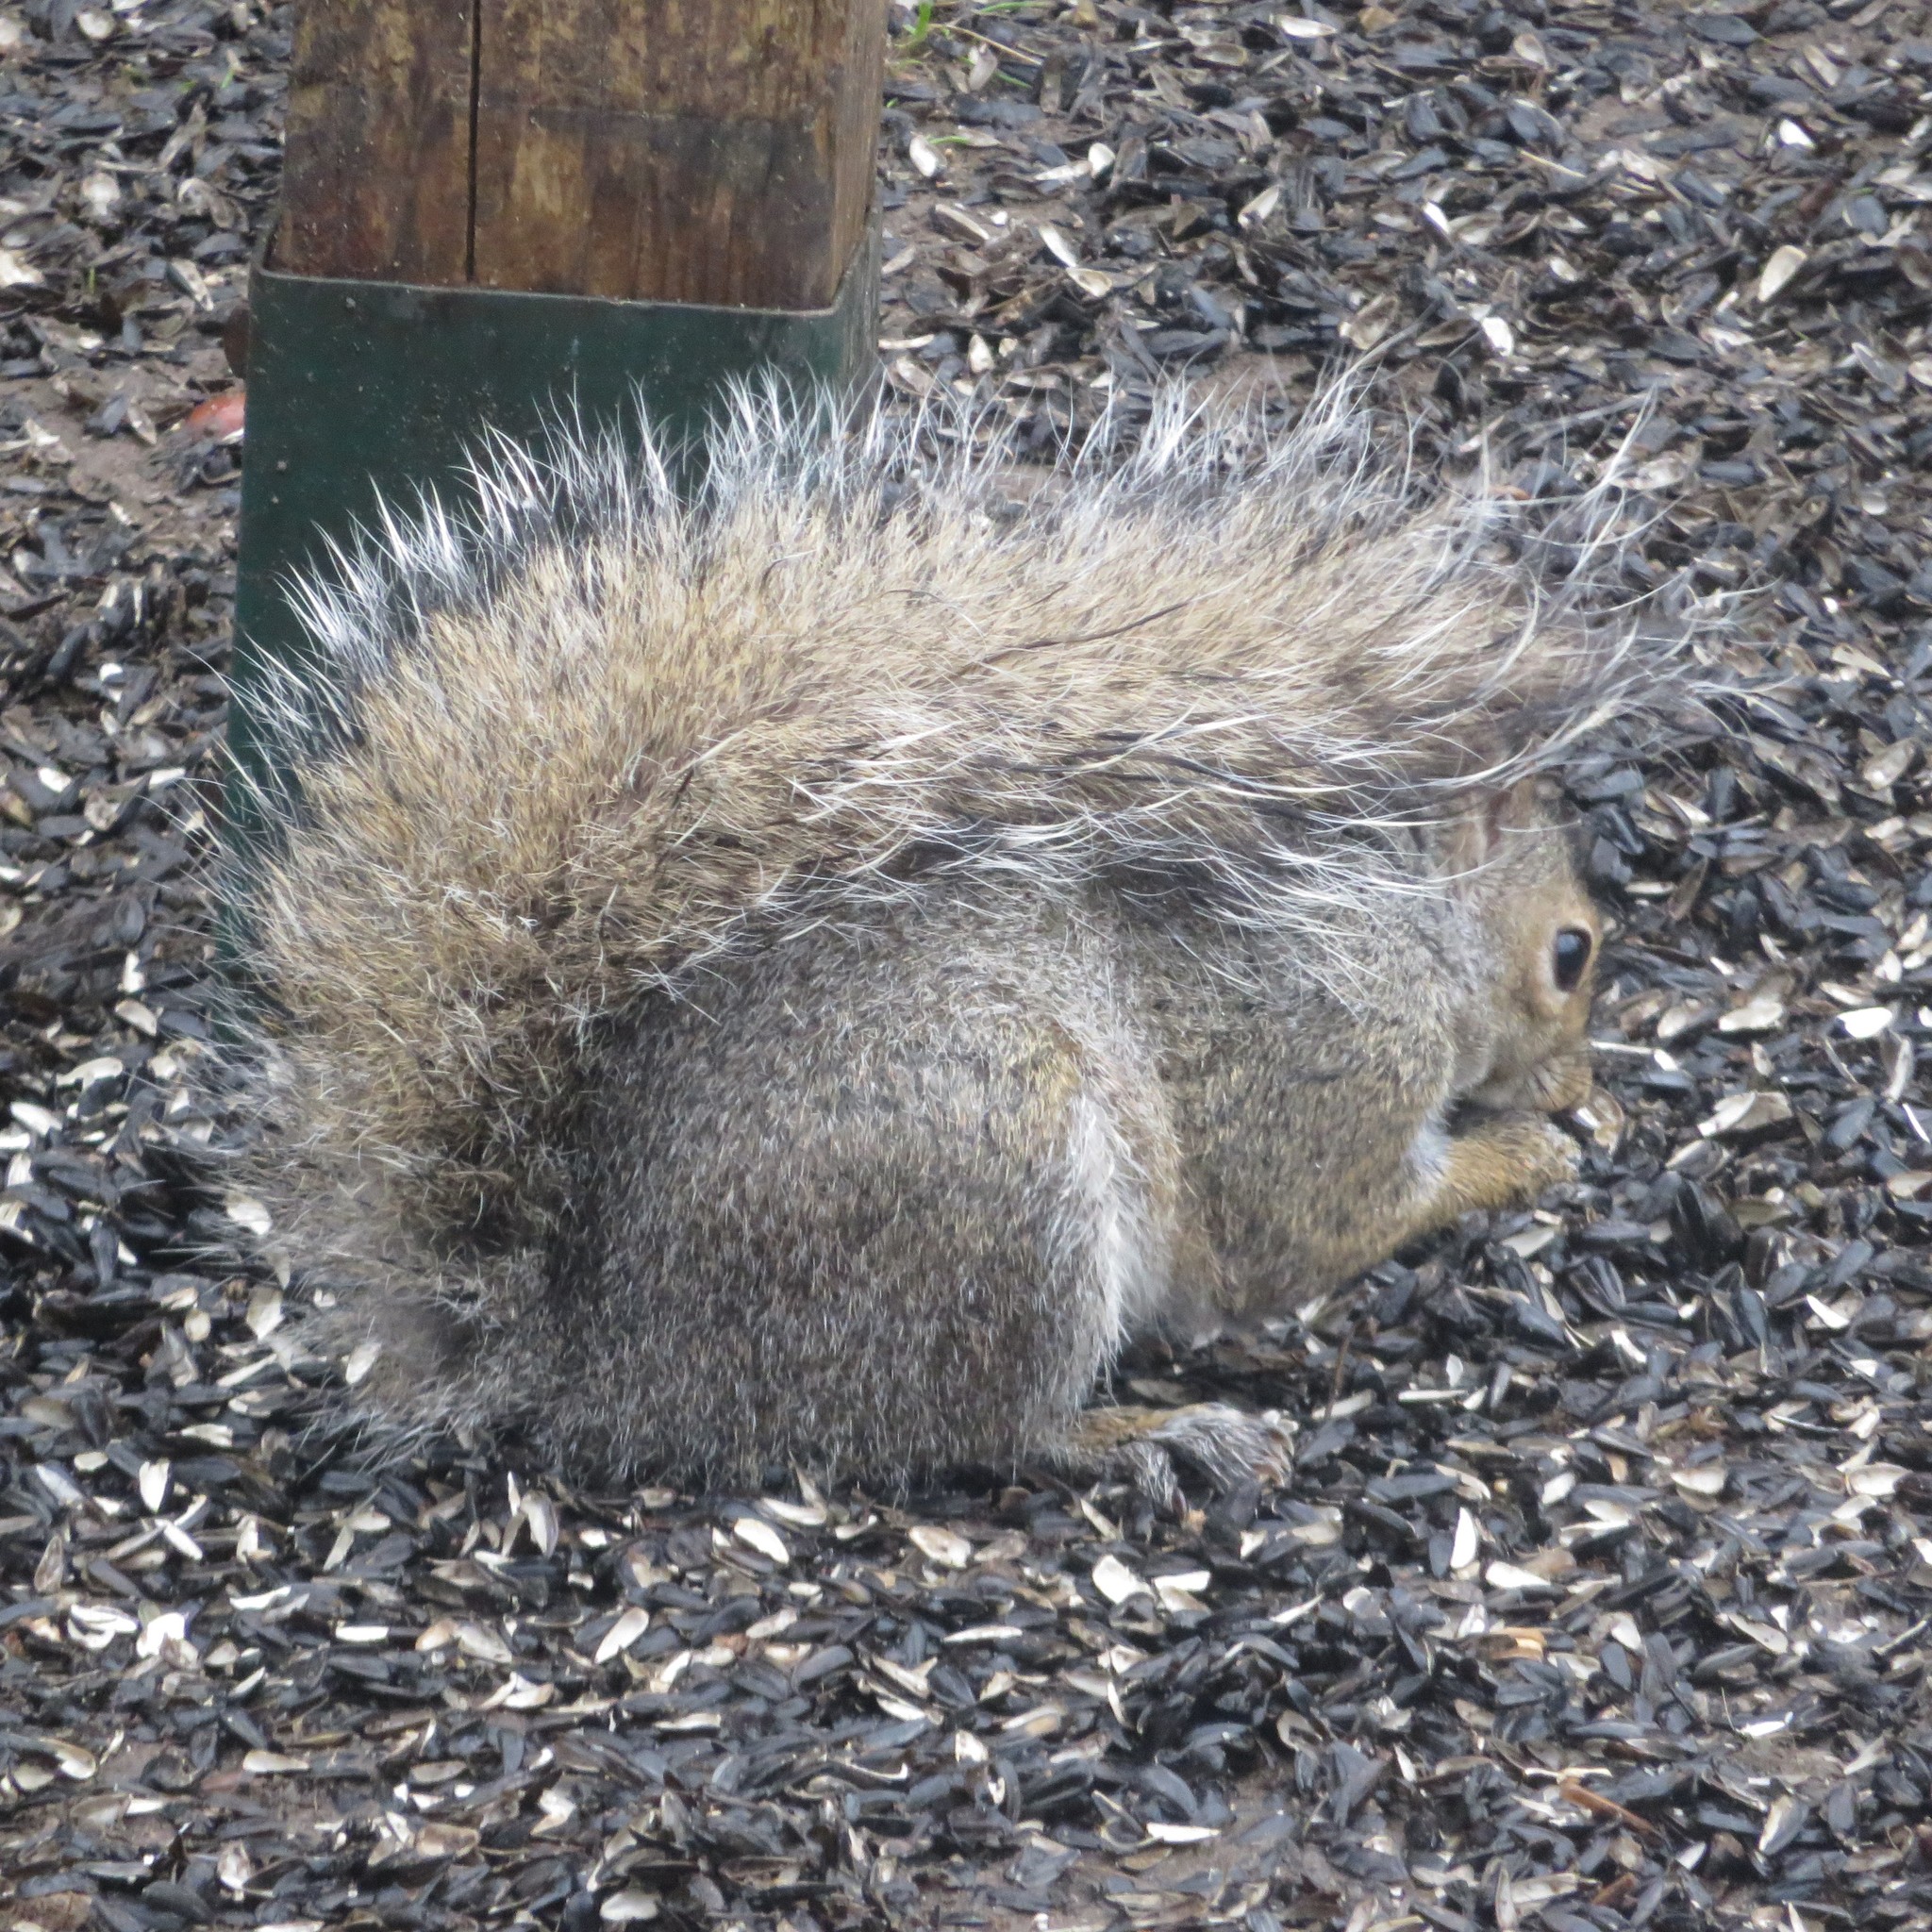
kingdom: Animalia
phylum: Chordata
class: Mammalia
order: Rodentia
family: Sciuridae
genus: Sciurus
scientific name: Sciurus carolinensis
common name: Eastern gray squirrel
